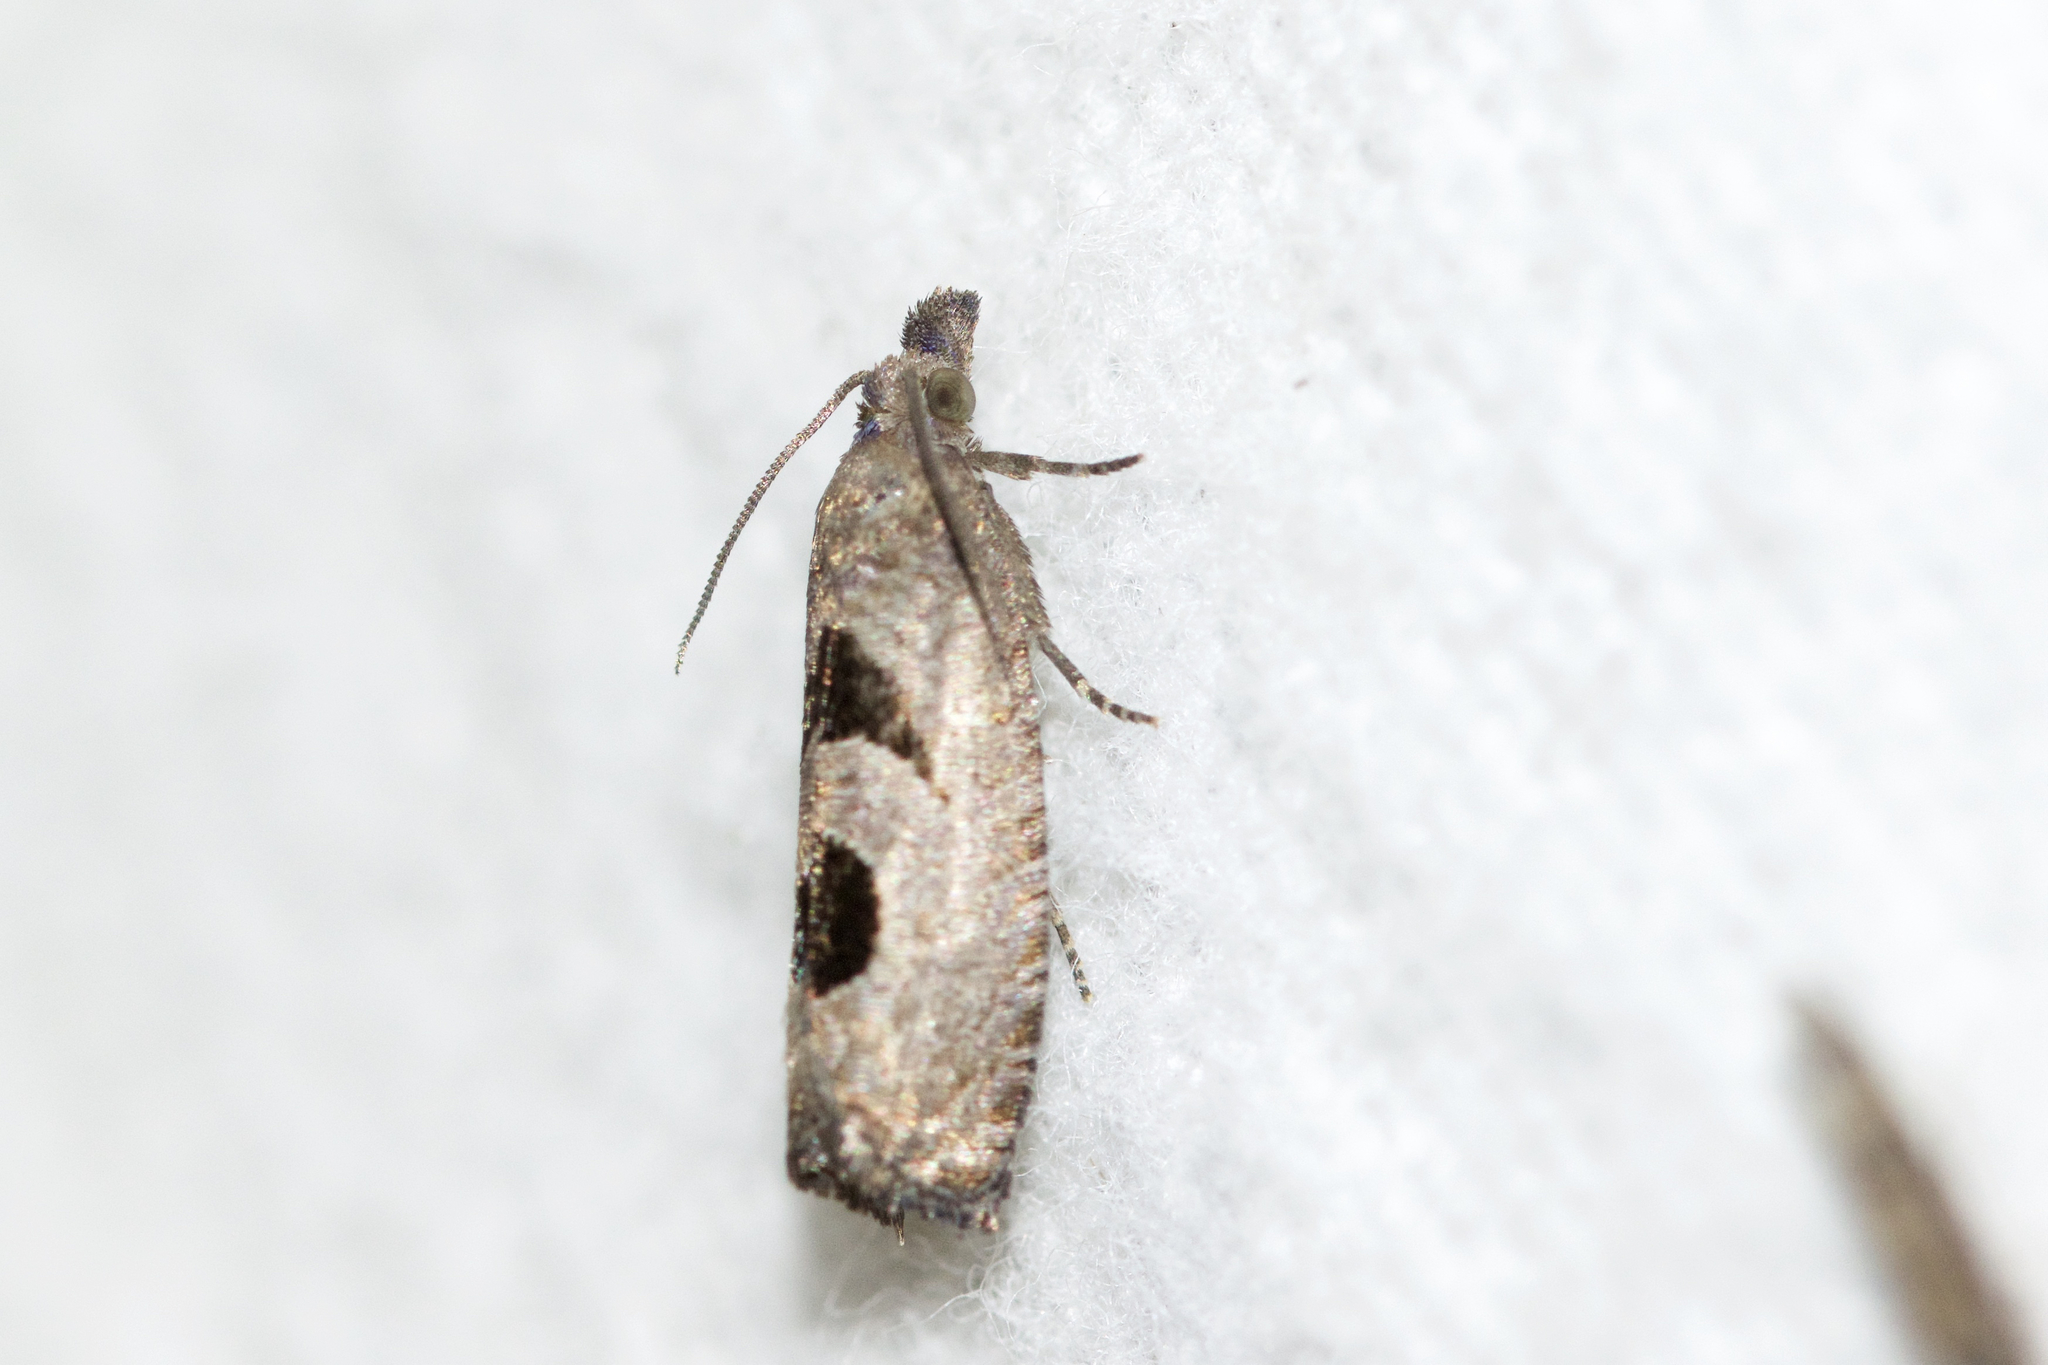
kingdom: Animalia
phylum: Arthropoda
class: Insecta
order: Lepidoptera
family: Tortricidae
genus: Eucosma
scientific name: Eucosma tomonana
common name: Aster-head eucosma moth
